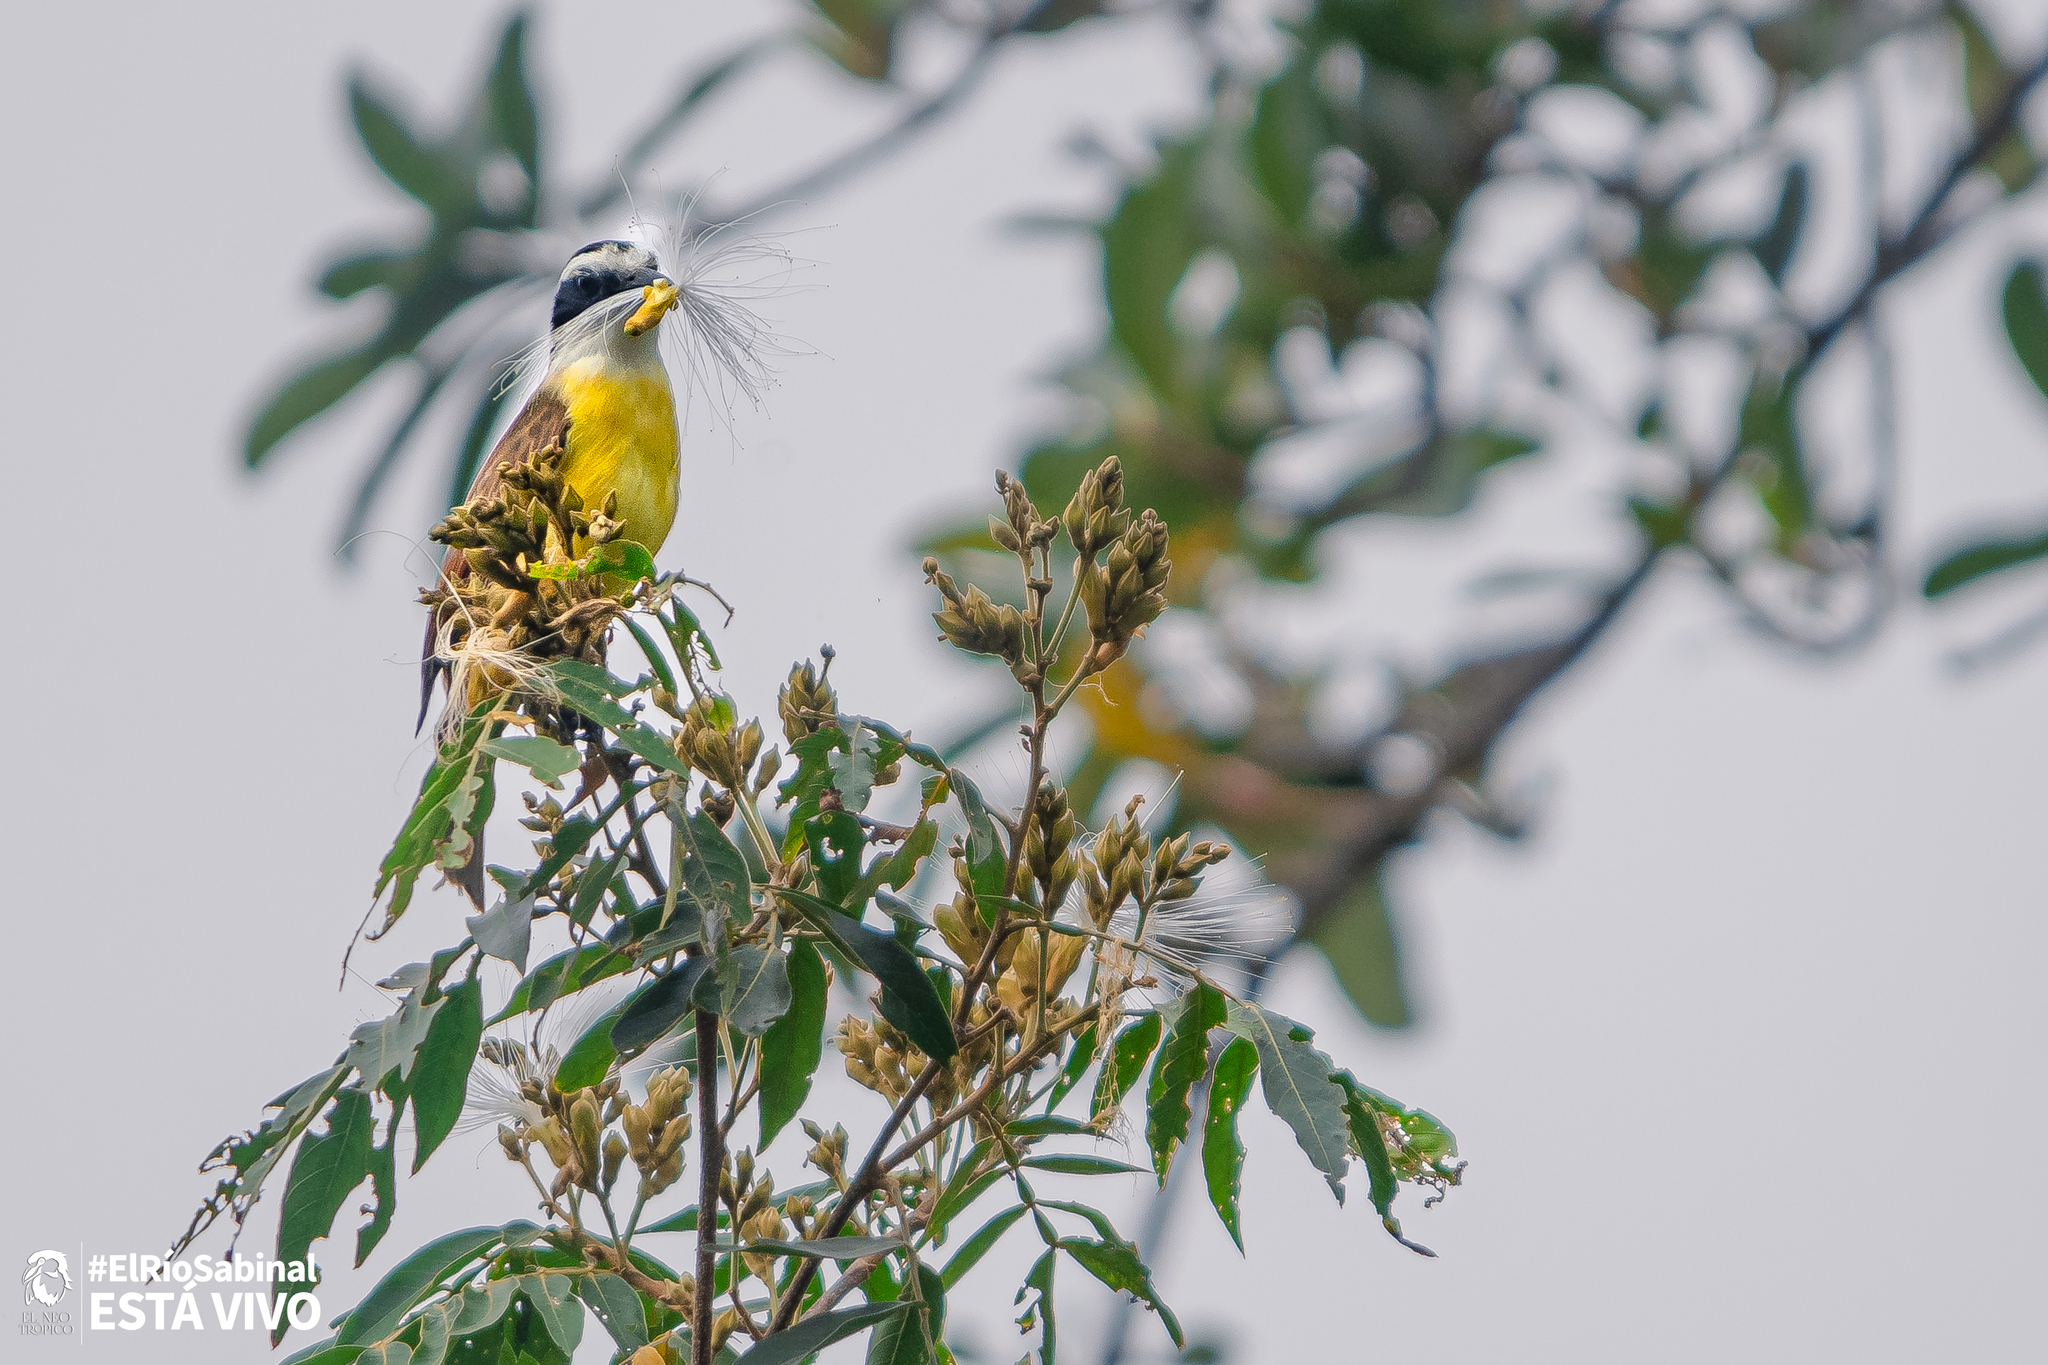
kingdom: Animalia
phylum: Chordata
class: Aves
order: Passeriformes
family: Tyrannidae
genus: Pitangus
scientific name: Pitangus sulphuratus
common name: Great kiskadee
